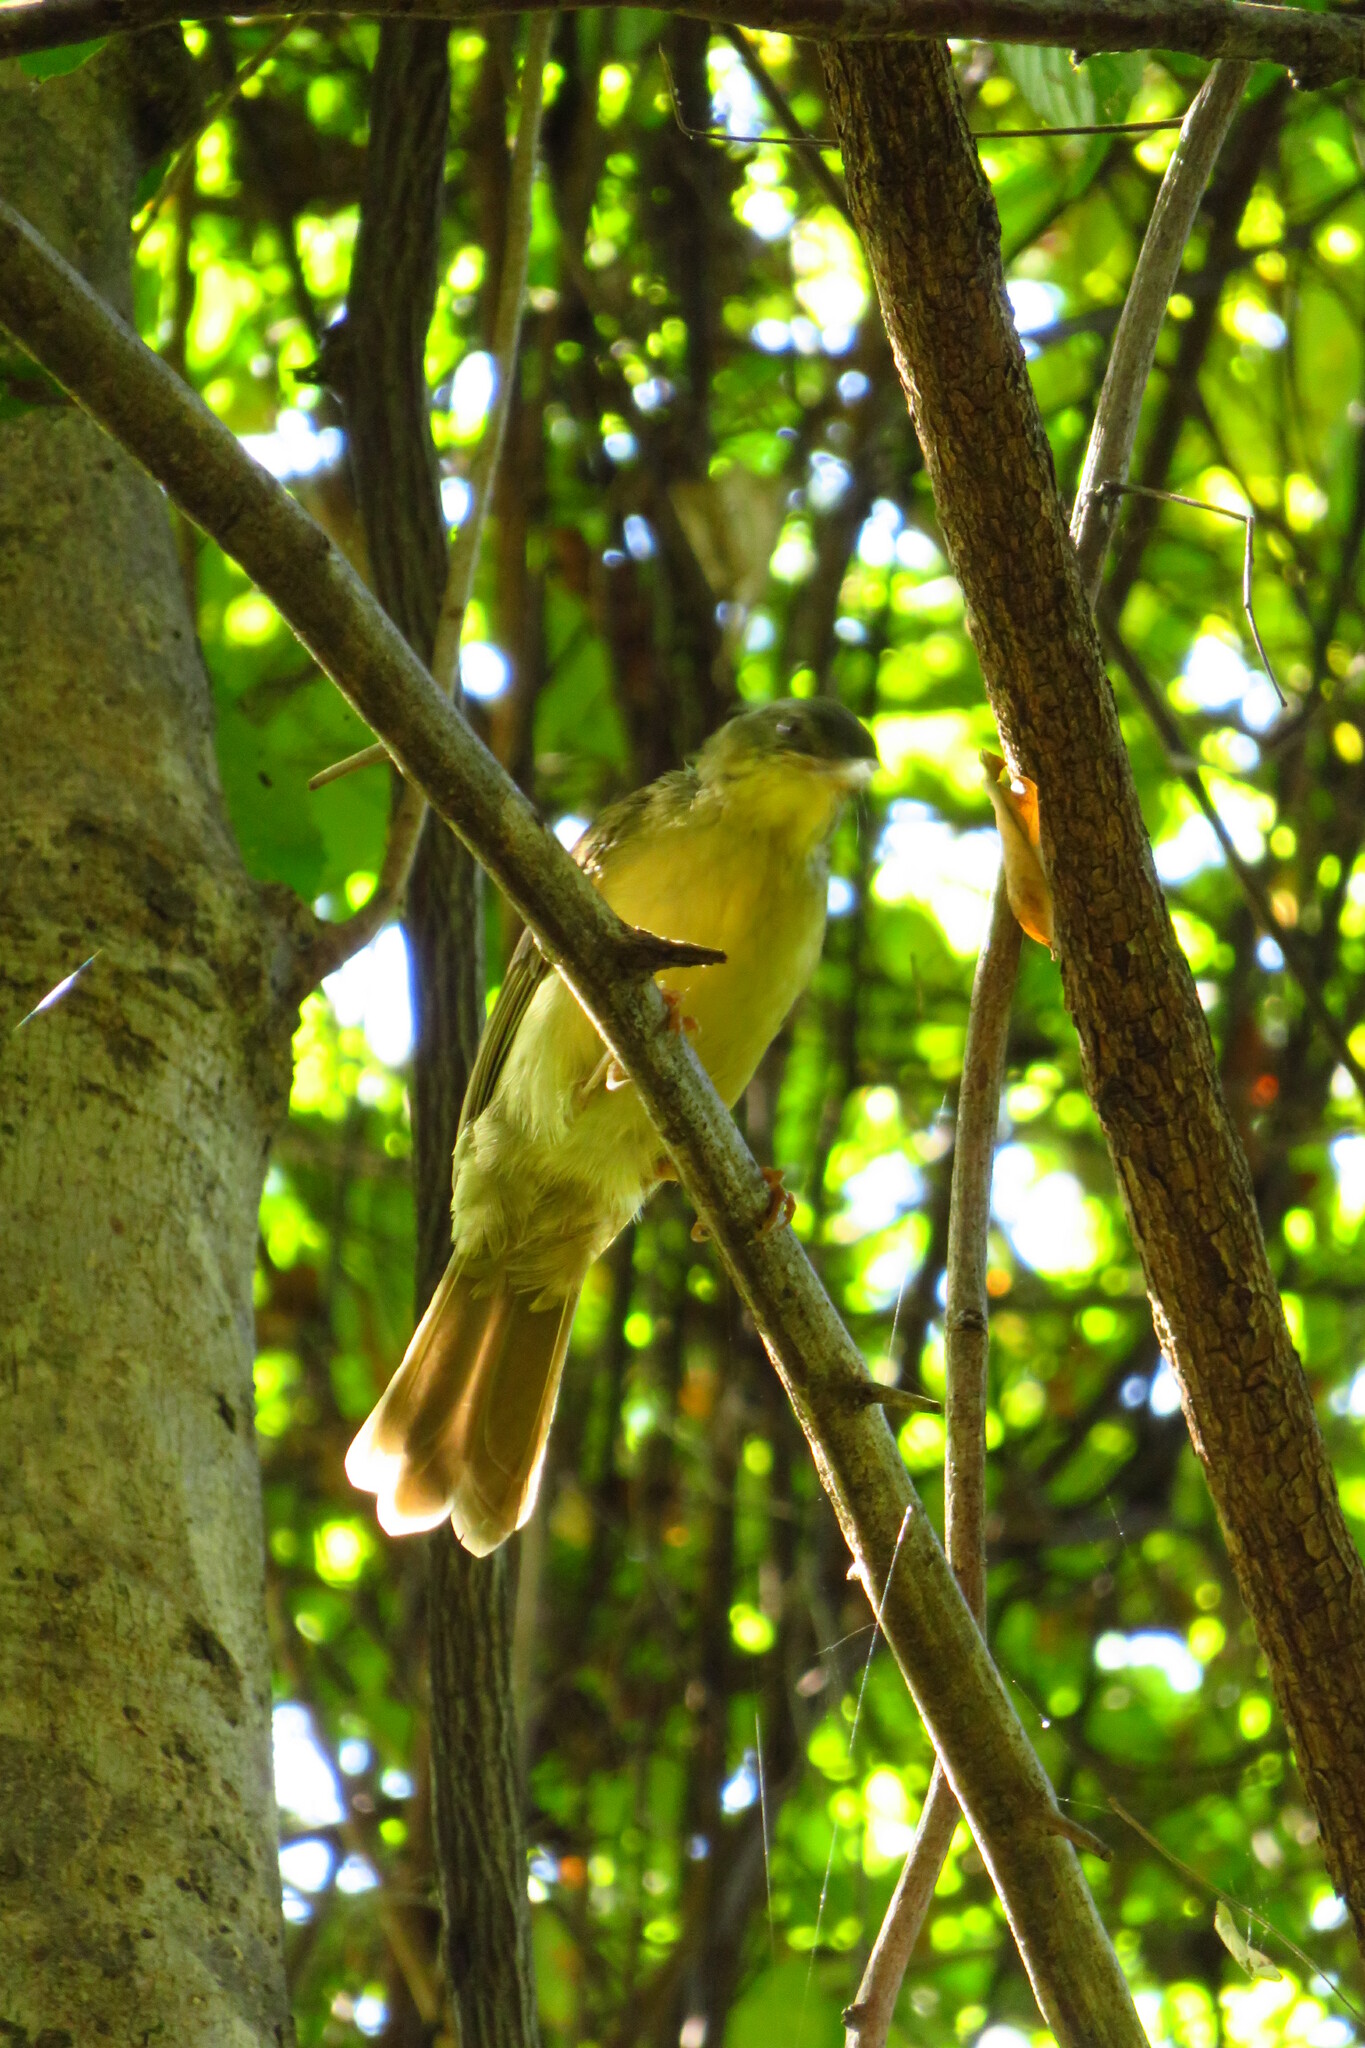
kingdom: Animalia
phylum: Chordata
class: Aves
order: Passeriformes
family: Bernieridae
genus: Bernieria
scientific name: Bernieria madagascariensis
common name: Long-billed bernieria
